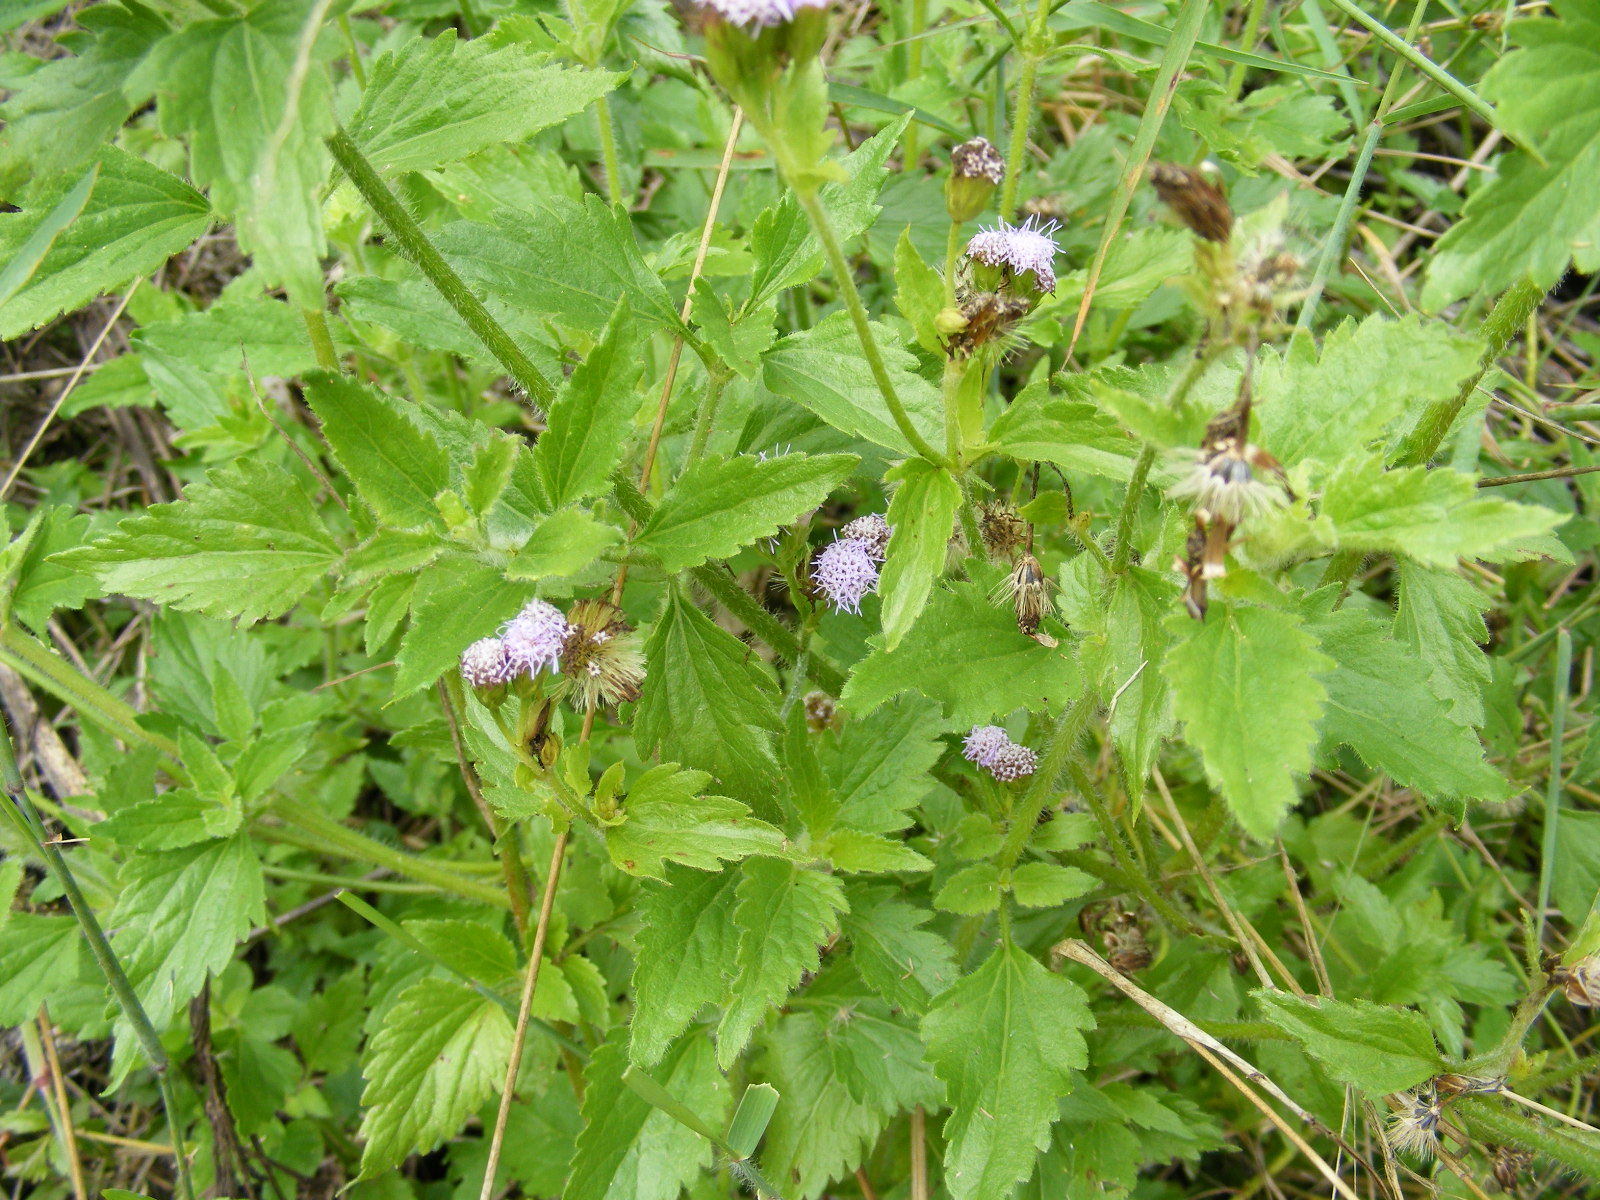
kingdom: Plantae
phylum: Tracheophyta
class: Magnoliopsida
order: Asterales
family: Asteraceae
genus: Praxelis
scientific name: Praxelis clematidea
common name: Praxelis
